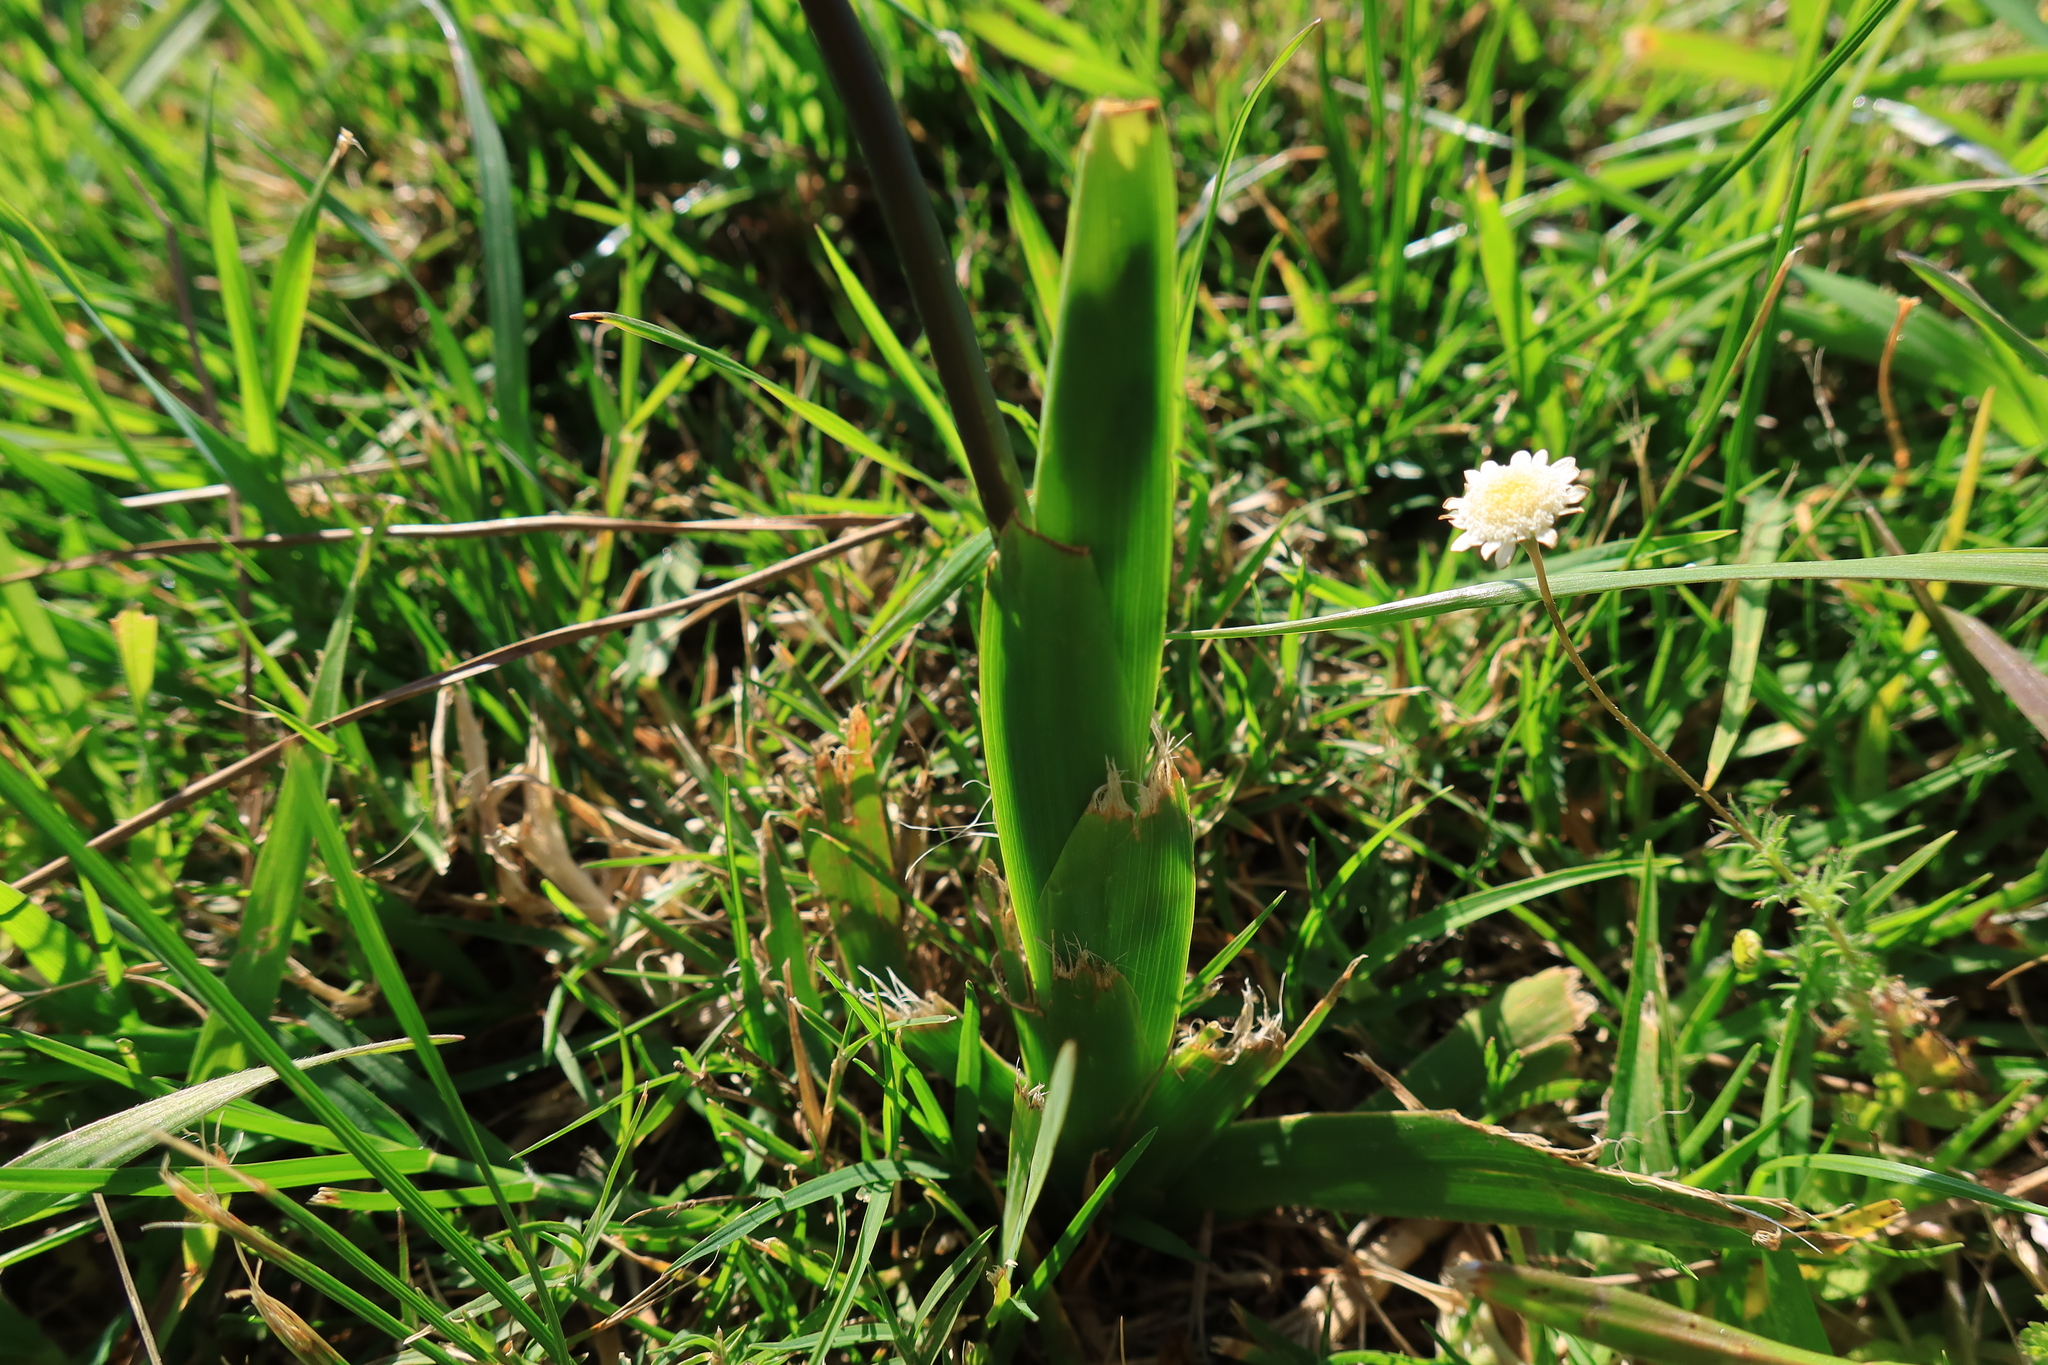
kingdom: Plantae
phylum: Tracheophyta
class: Liliopsida
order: Asparagales
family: Iridaceae
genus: Sparaxis
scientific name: Sparaxis grandiflora
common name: Plain harlequin-flower
